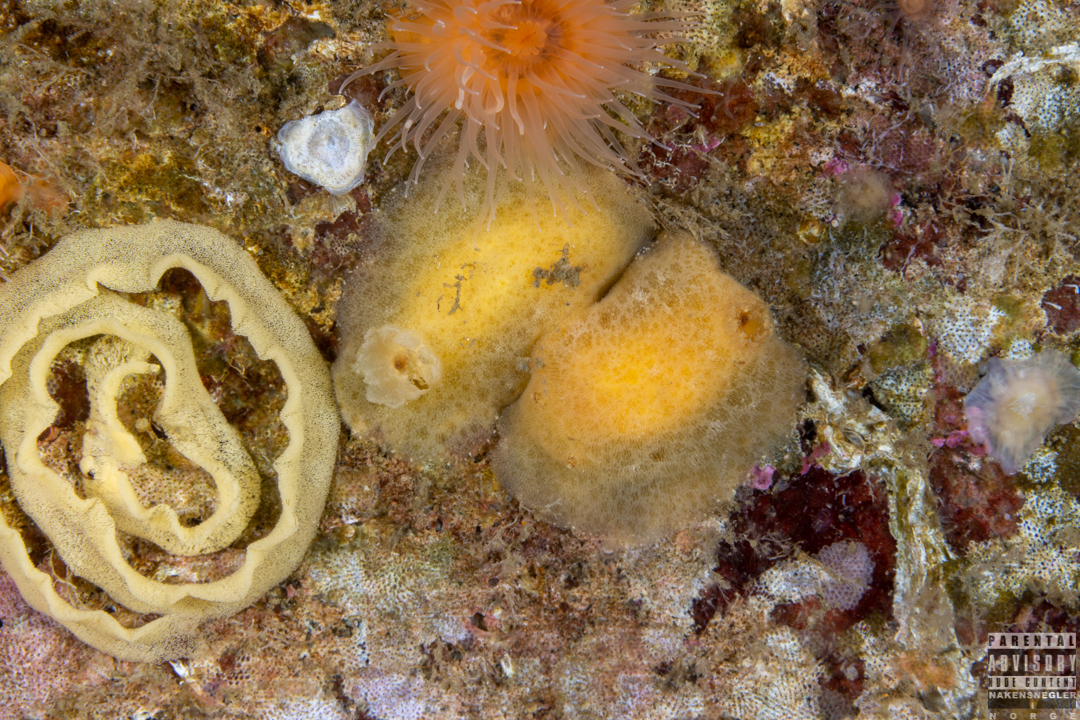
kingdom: Animalia
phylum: Mollusca
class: Gastropoda
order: Nudibranchia
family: Discodorididae
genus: Jorunna
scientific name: Jorunna tomentosa
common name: Grey sea slug
